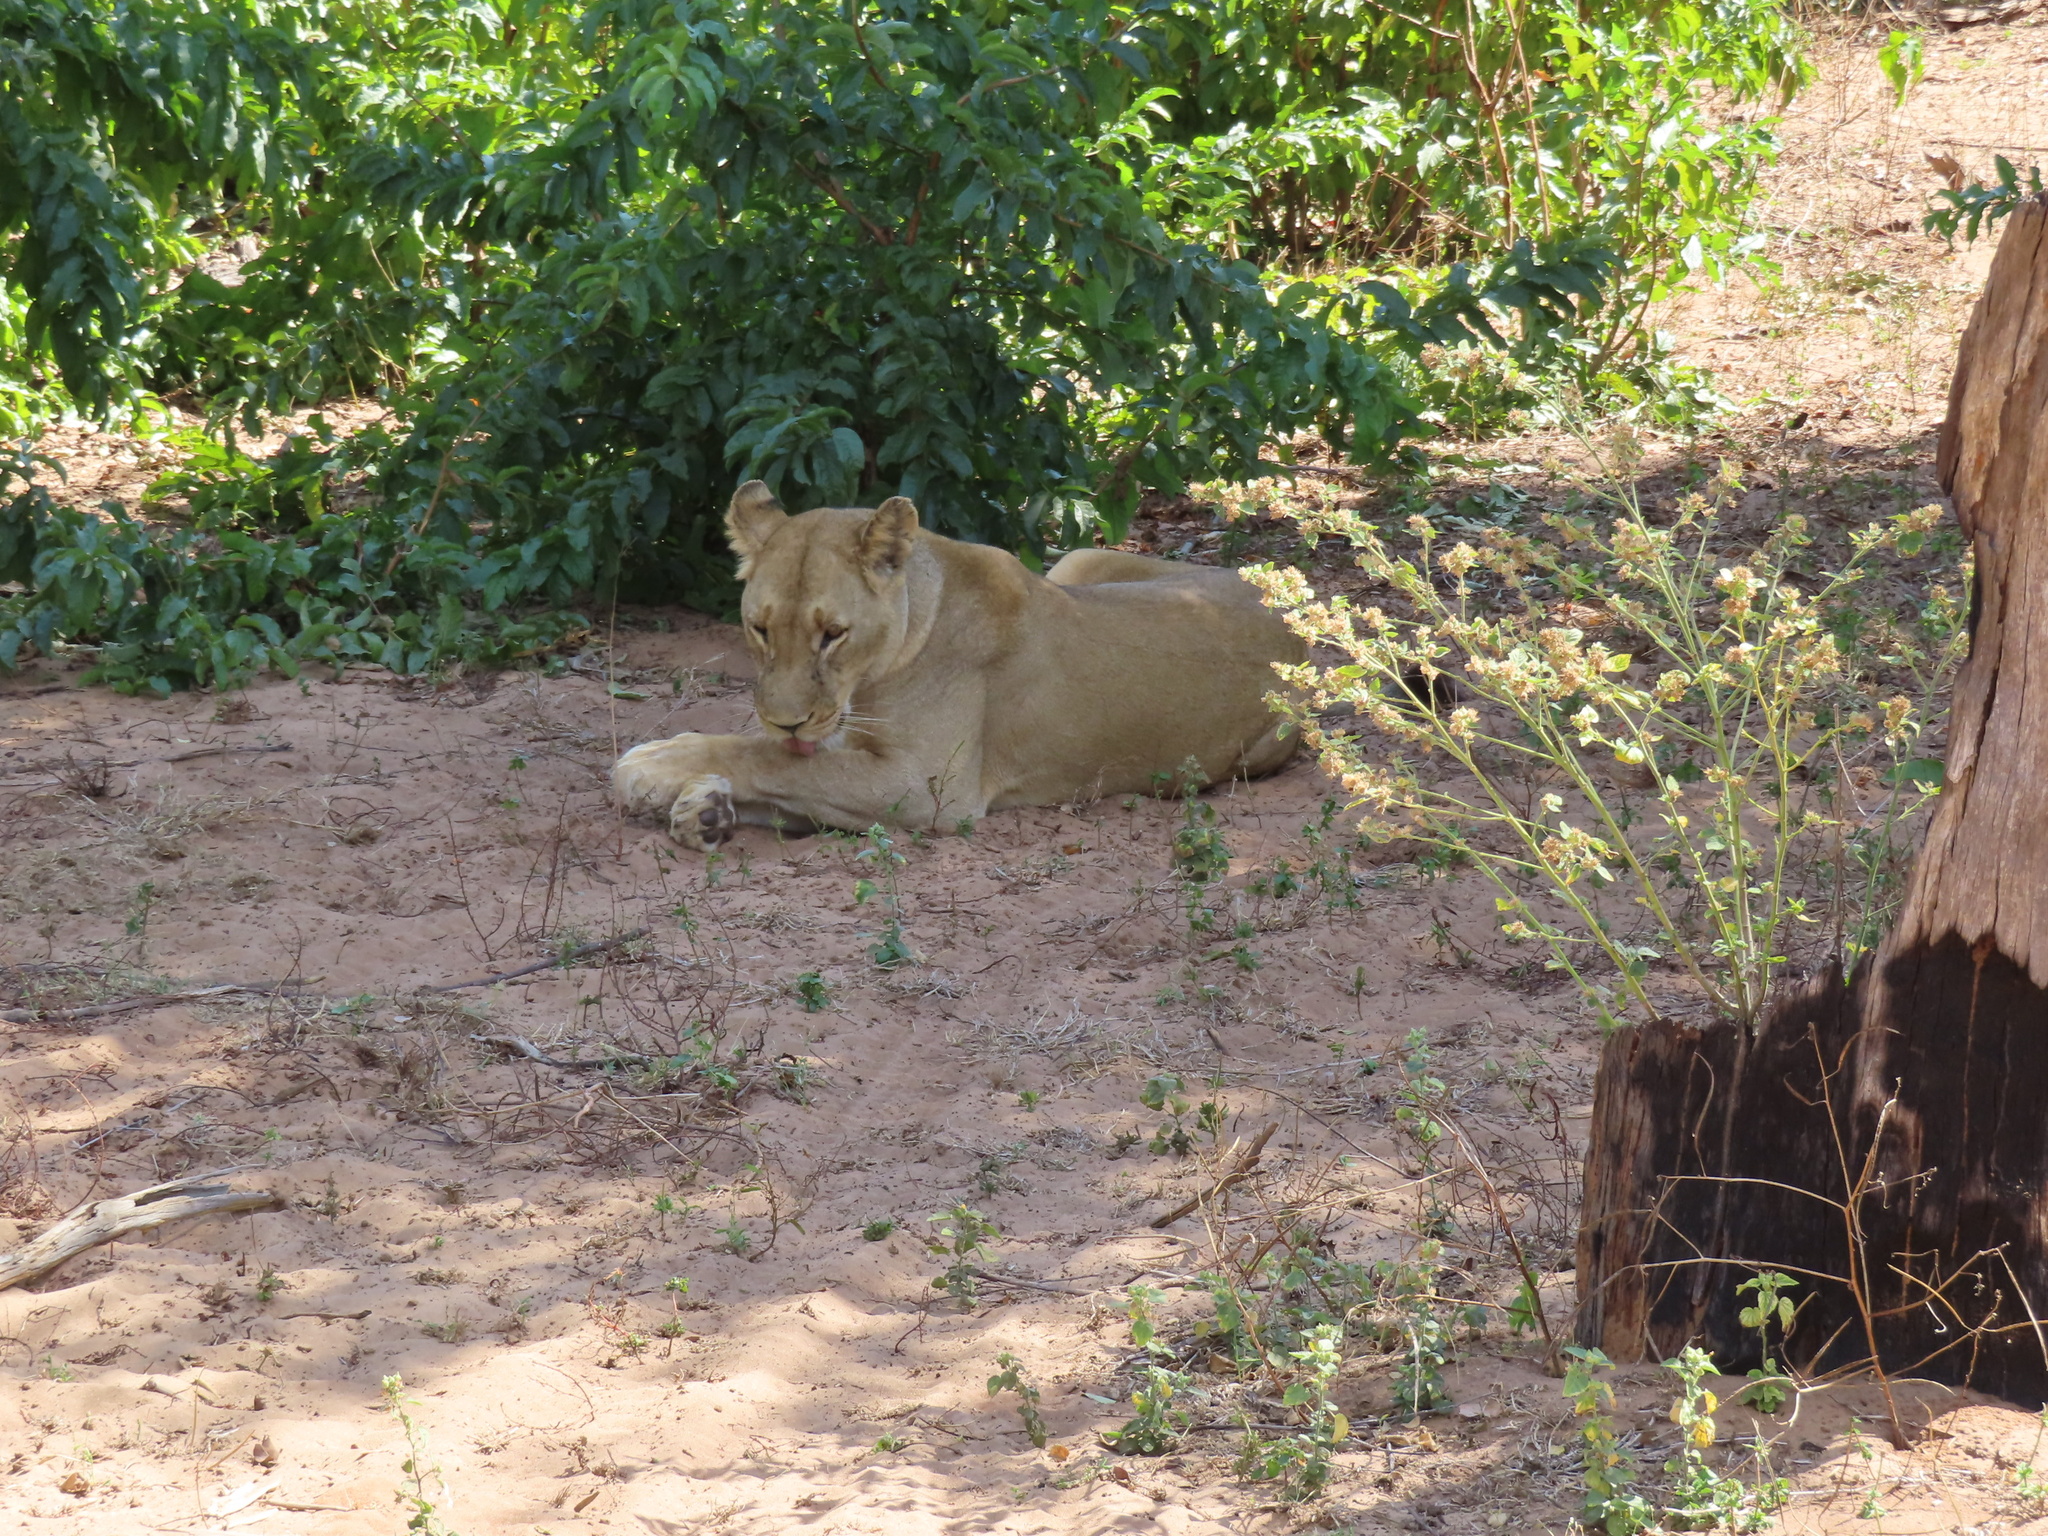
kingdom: Animalia
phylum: Chordata
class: Mammalia
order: Carnivora
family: Felidae
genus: Panthera
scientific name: Panthera leo
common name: Lion
